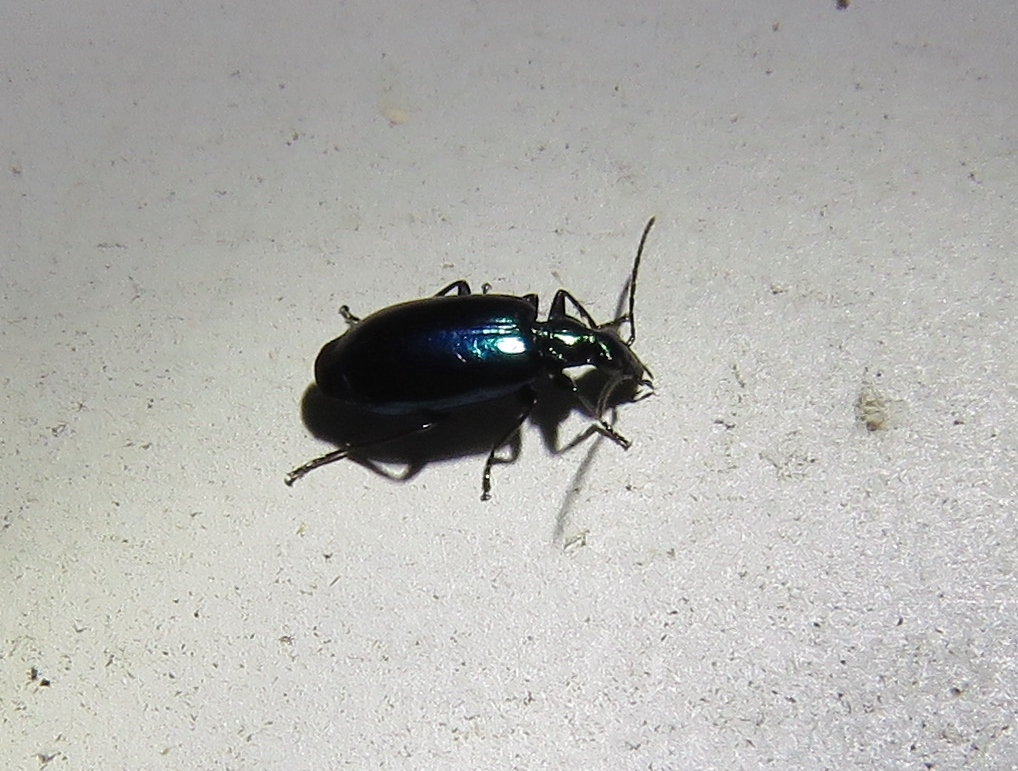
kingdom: Animalia
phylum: Arthropoda
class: Insecta
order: Coleoptera
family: Carabidae
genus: Lebia
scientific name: Lebia viridis
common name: Flower lebia beetle
